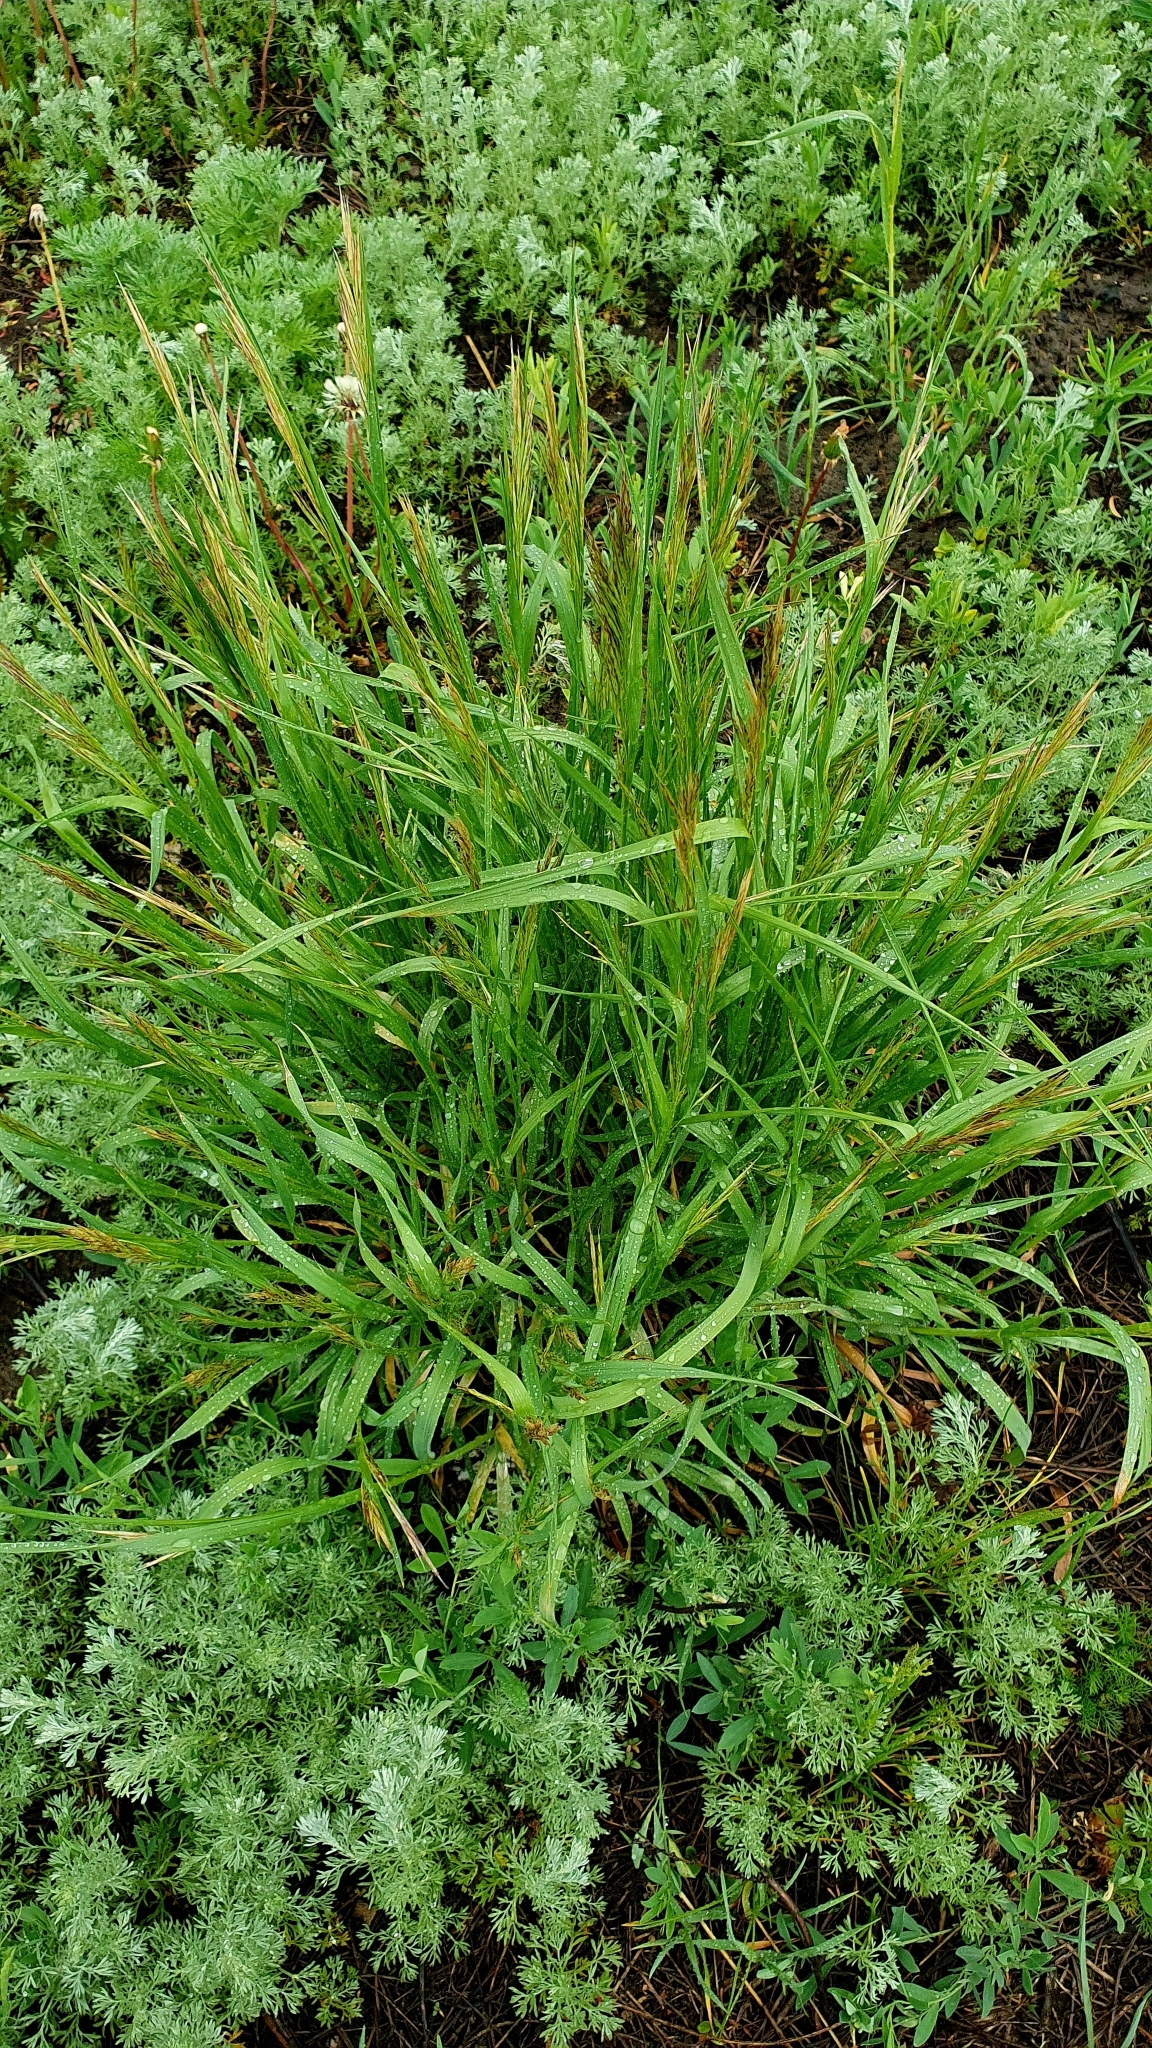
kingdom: Plantae
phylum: Tracheophyta
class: Liliopsida
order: Poales
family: Poaceae
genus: Bromus
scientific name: Bromus inermis
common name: Smooth brome
